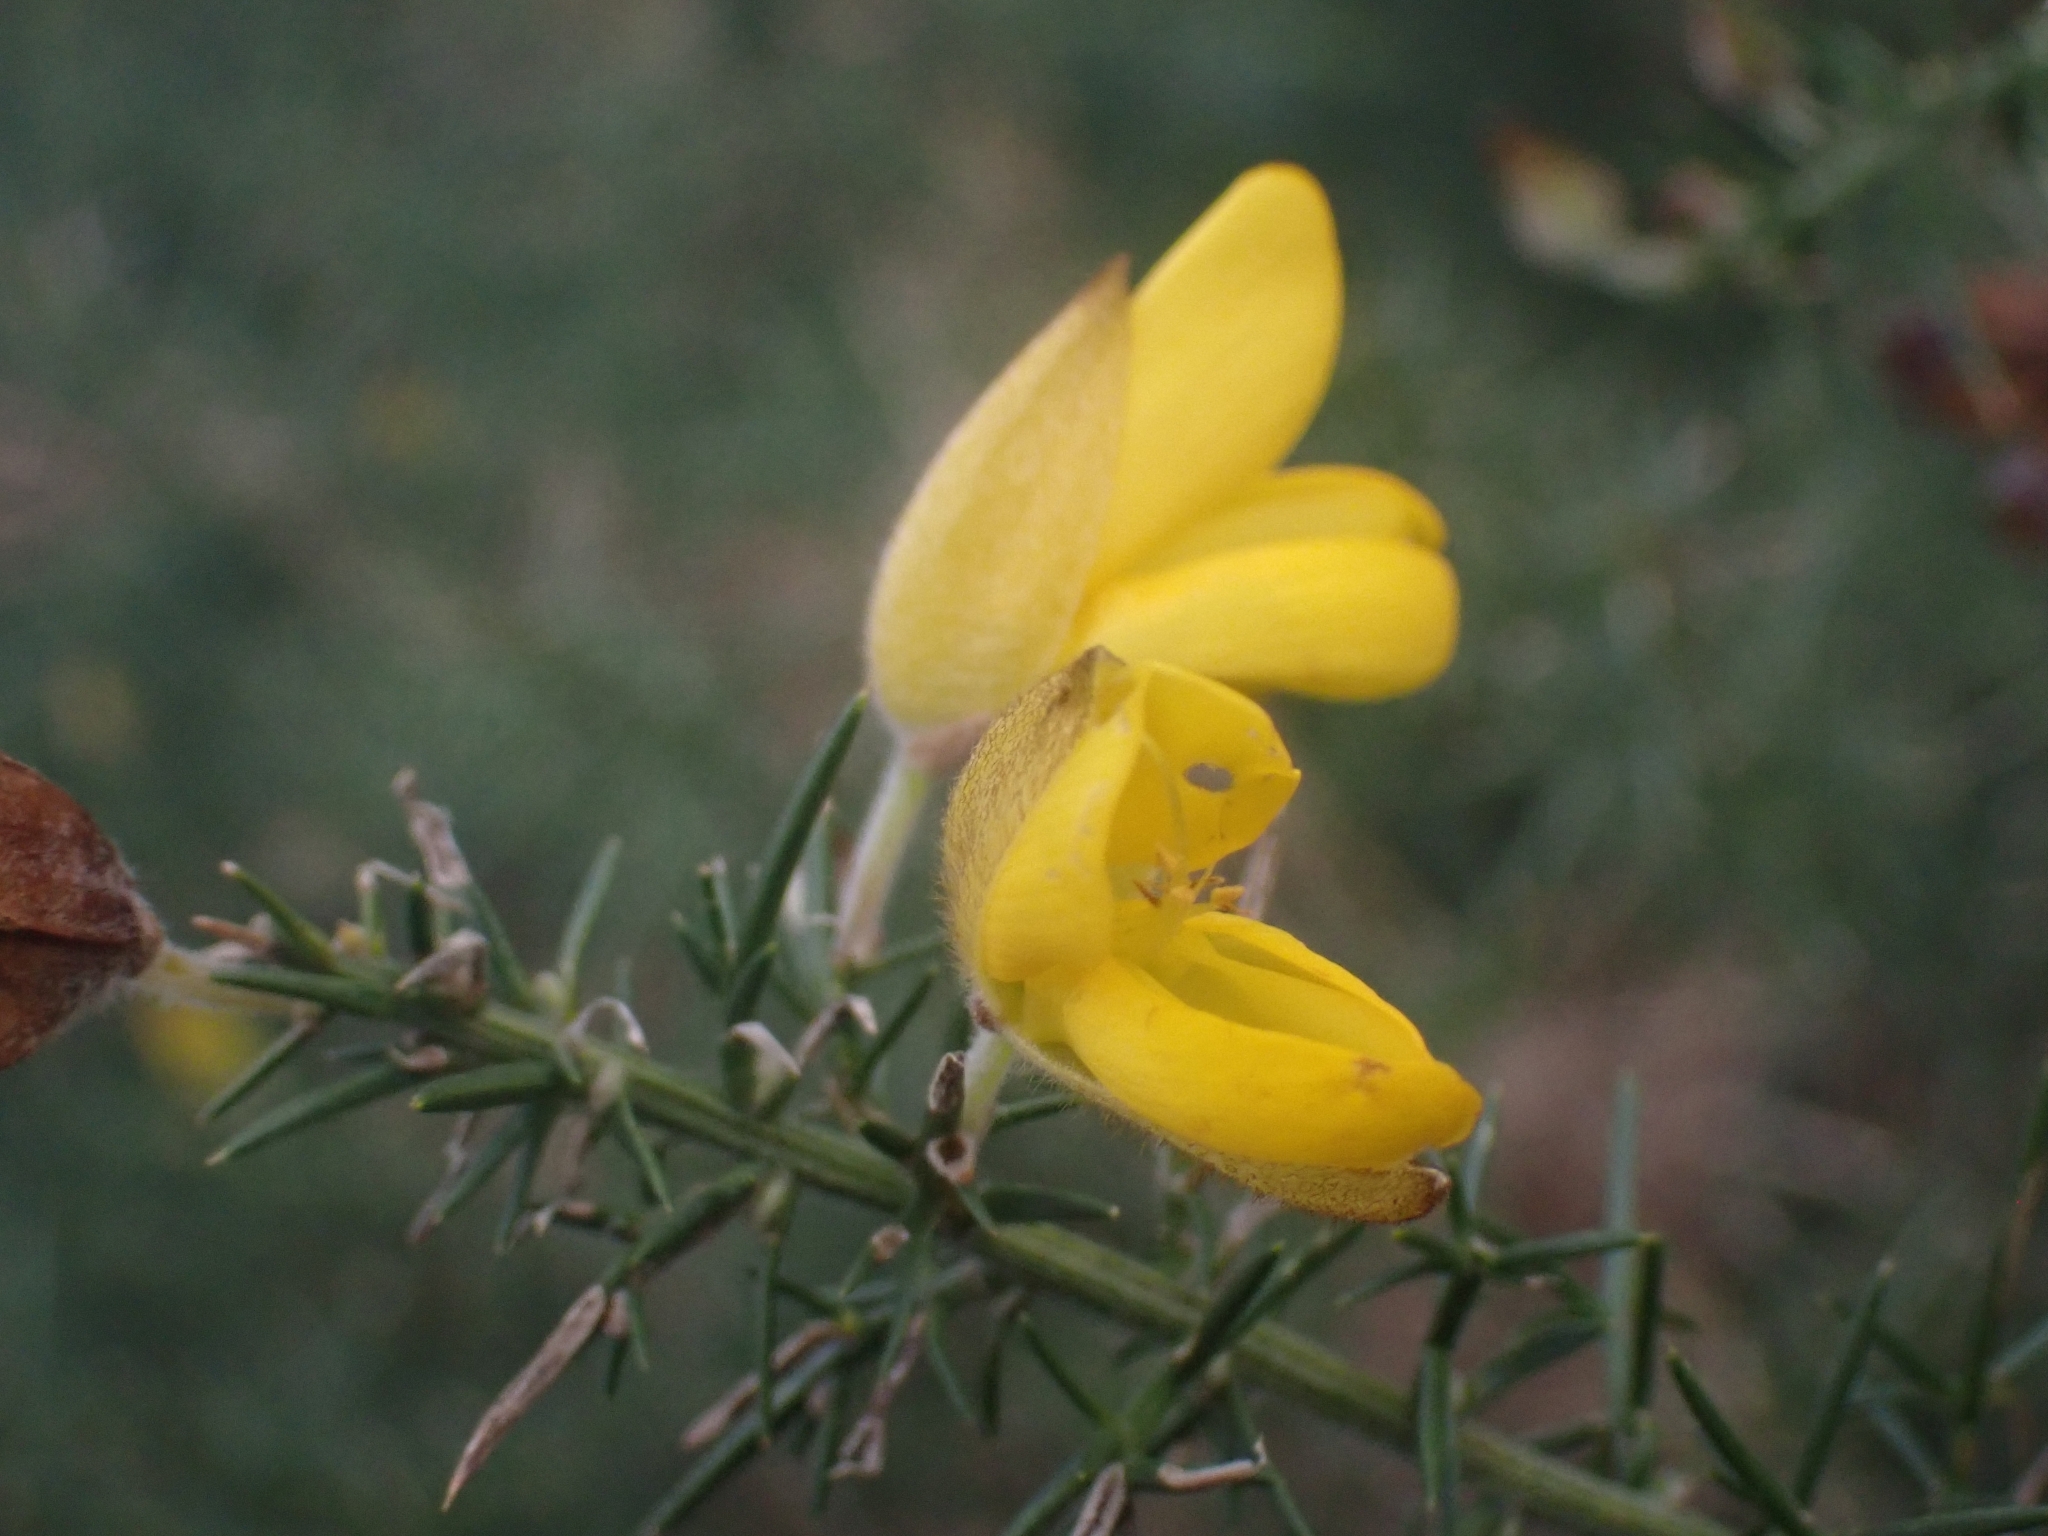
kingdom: Plantae
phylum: Tracheophyta
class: Magnoliopsida
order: Fabales
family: Fabaceae
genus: Ulex
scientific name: Ulex europaeus
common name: Common gorse
